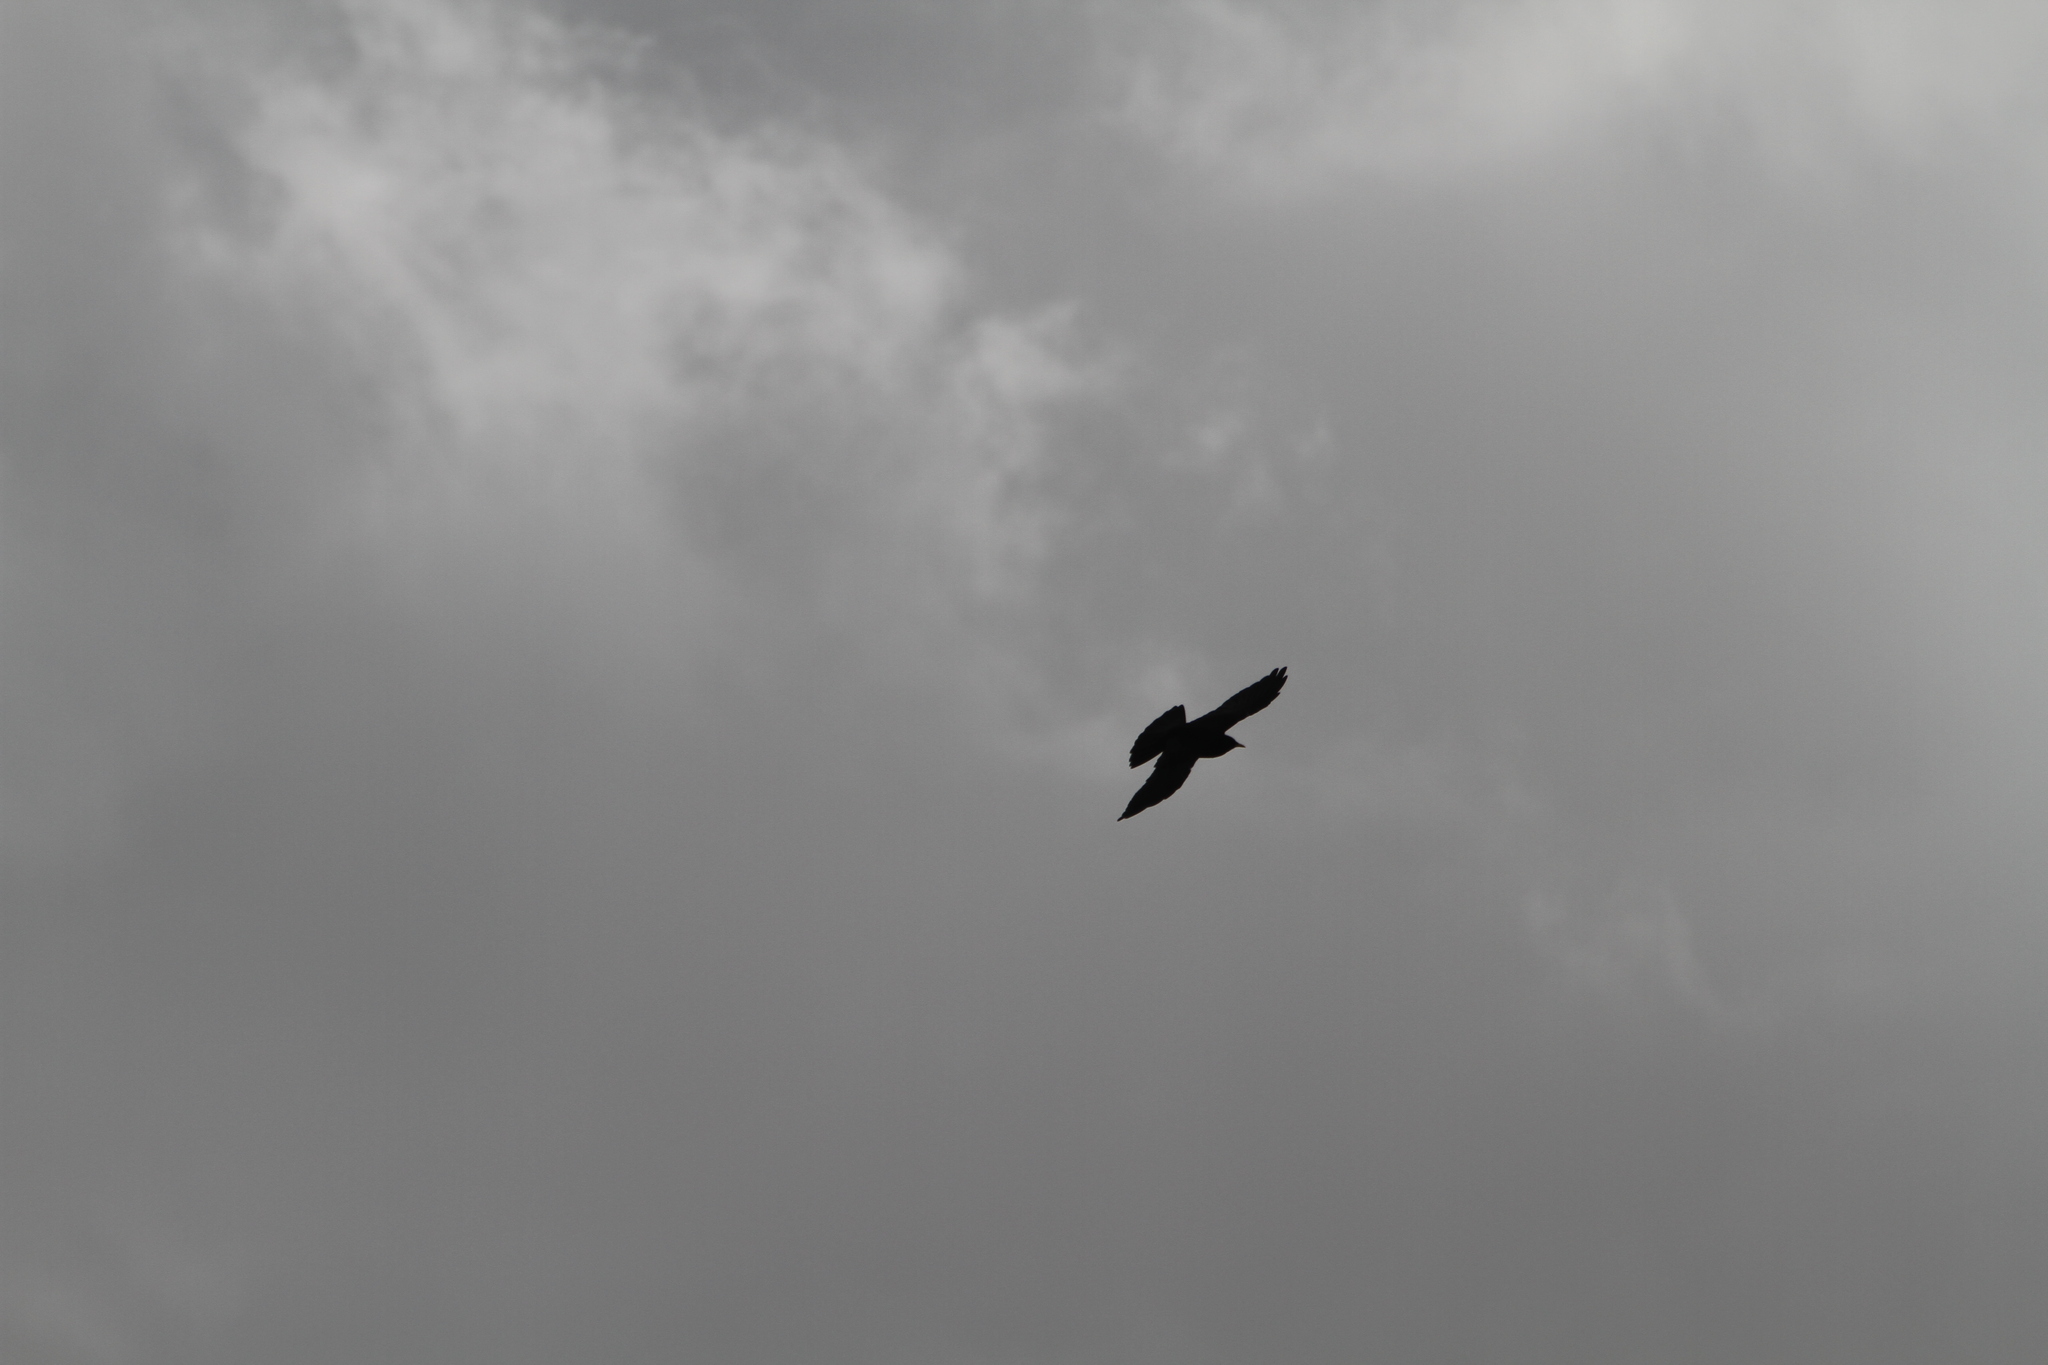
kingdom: Animalia
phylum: Chordata
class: Aves
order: Passeriformes
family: Corvidae
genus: Pyrrhocorax
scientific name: Pyrrhocorax graculus
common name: Alpine chough
